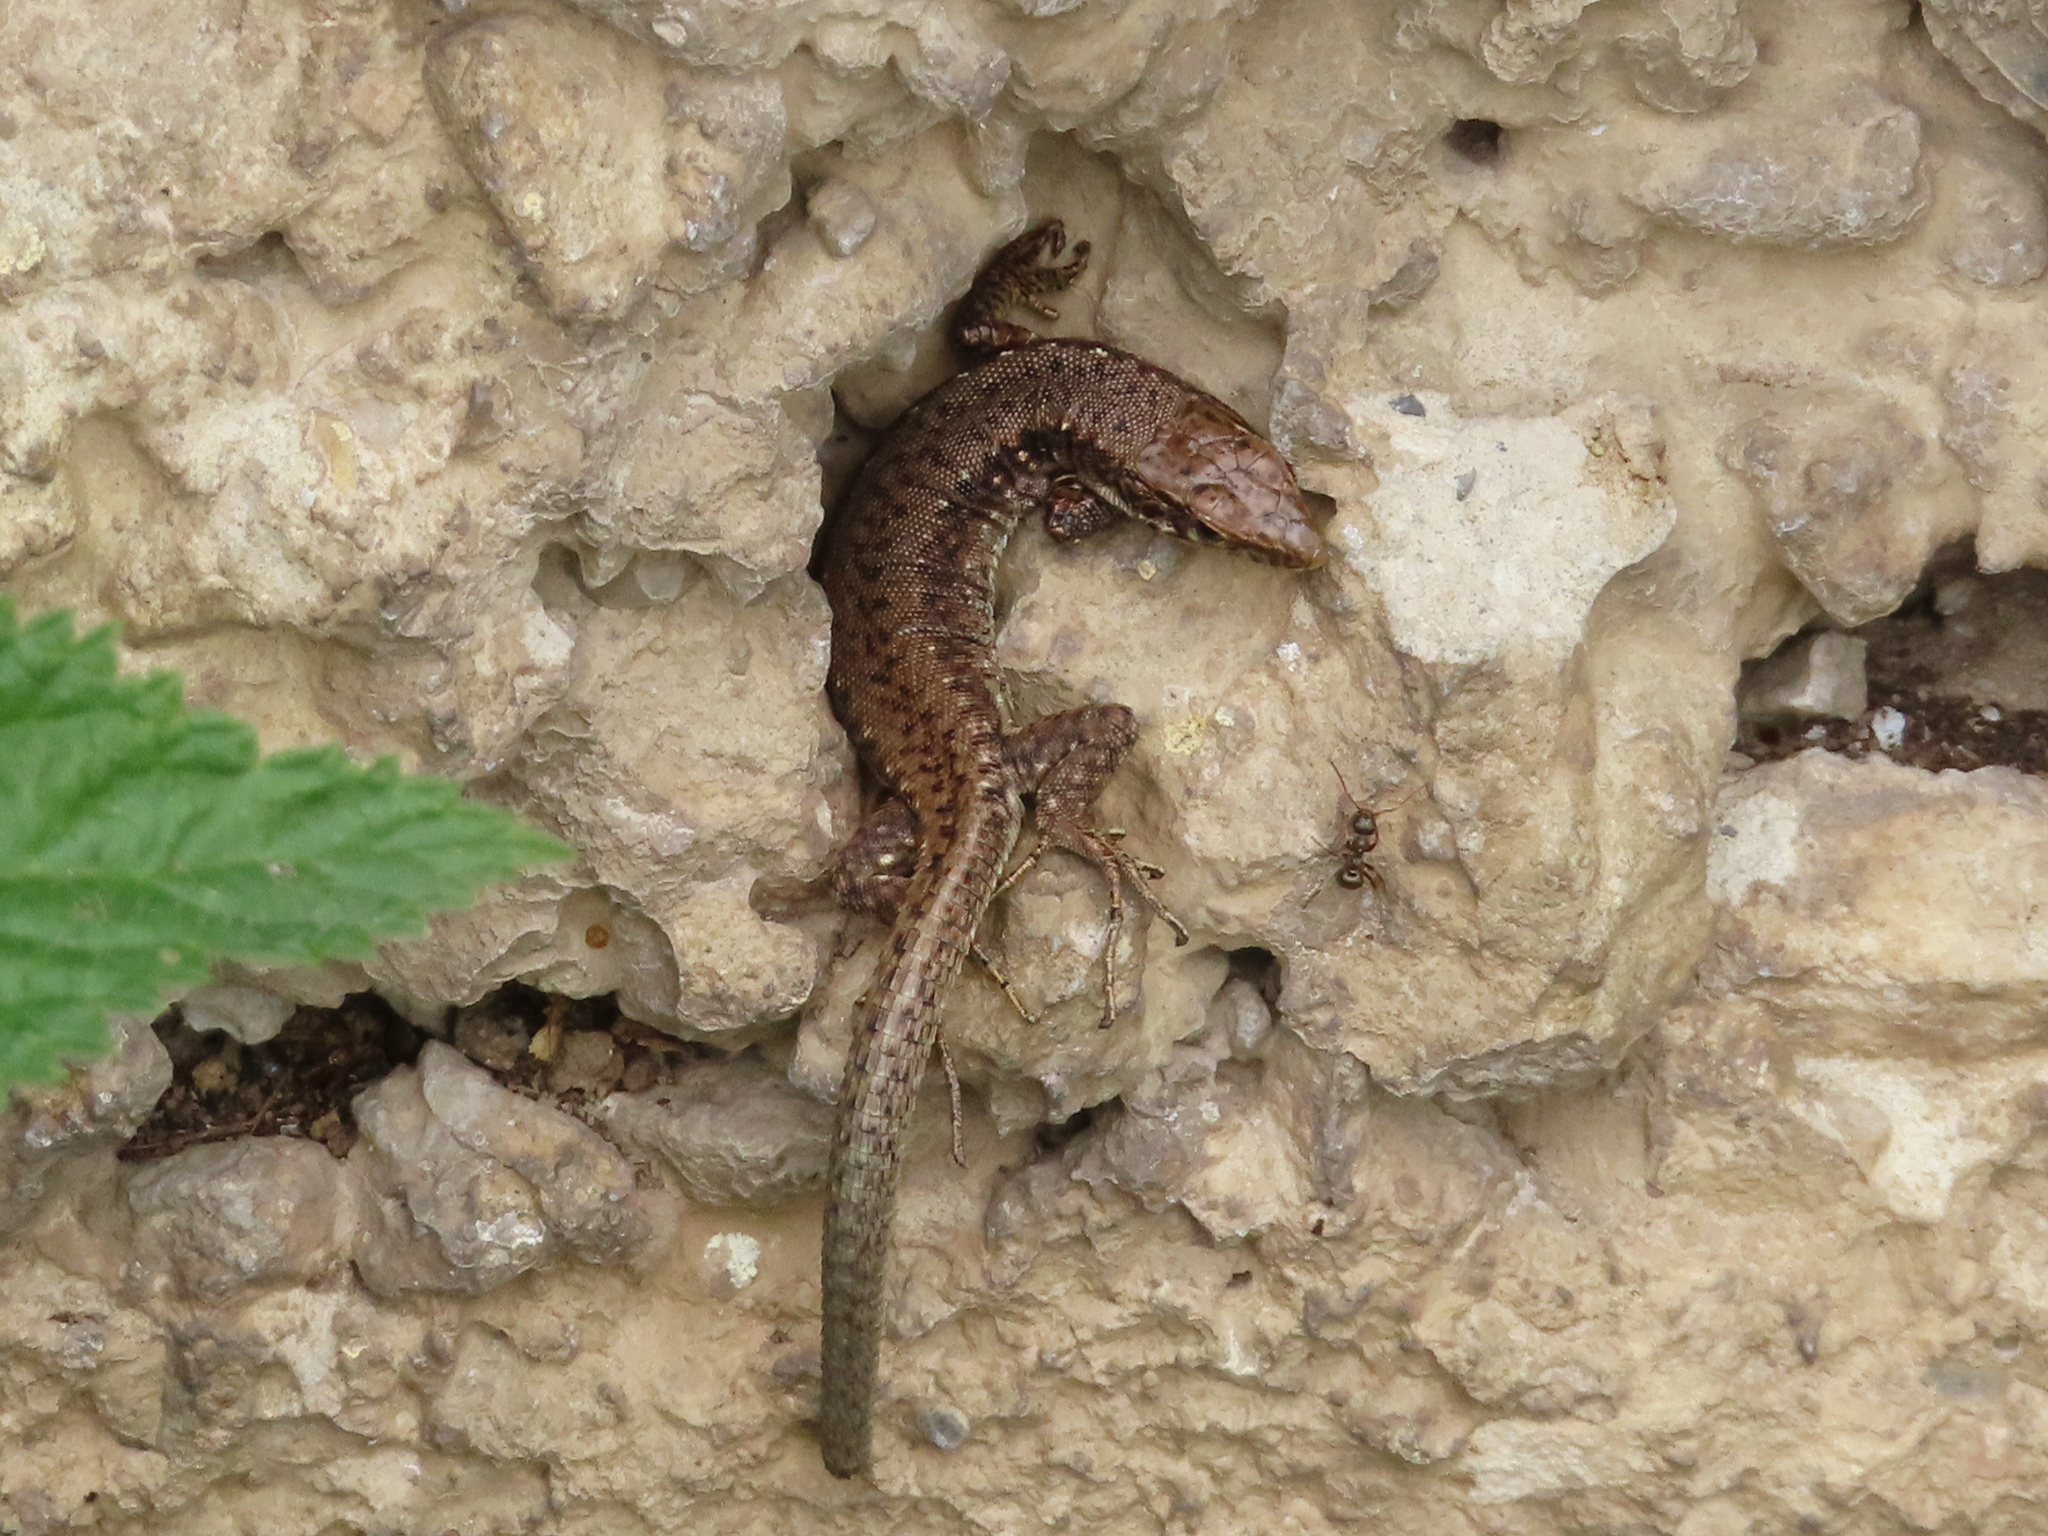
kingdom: Animalia
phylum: Chordata
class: Squamata
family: Lacertidae
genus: Darevskia
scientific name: Darevskia armeniaca
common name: Armenian lizard
